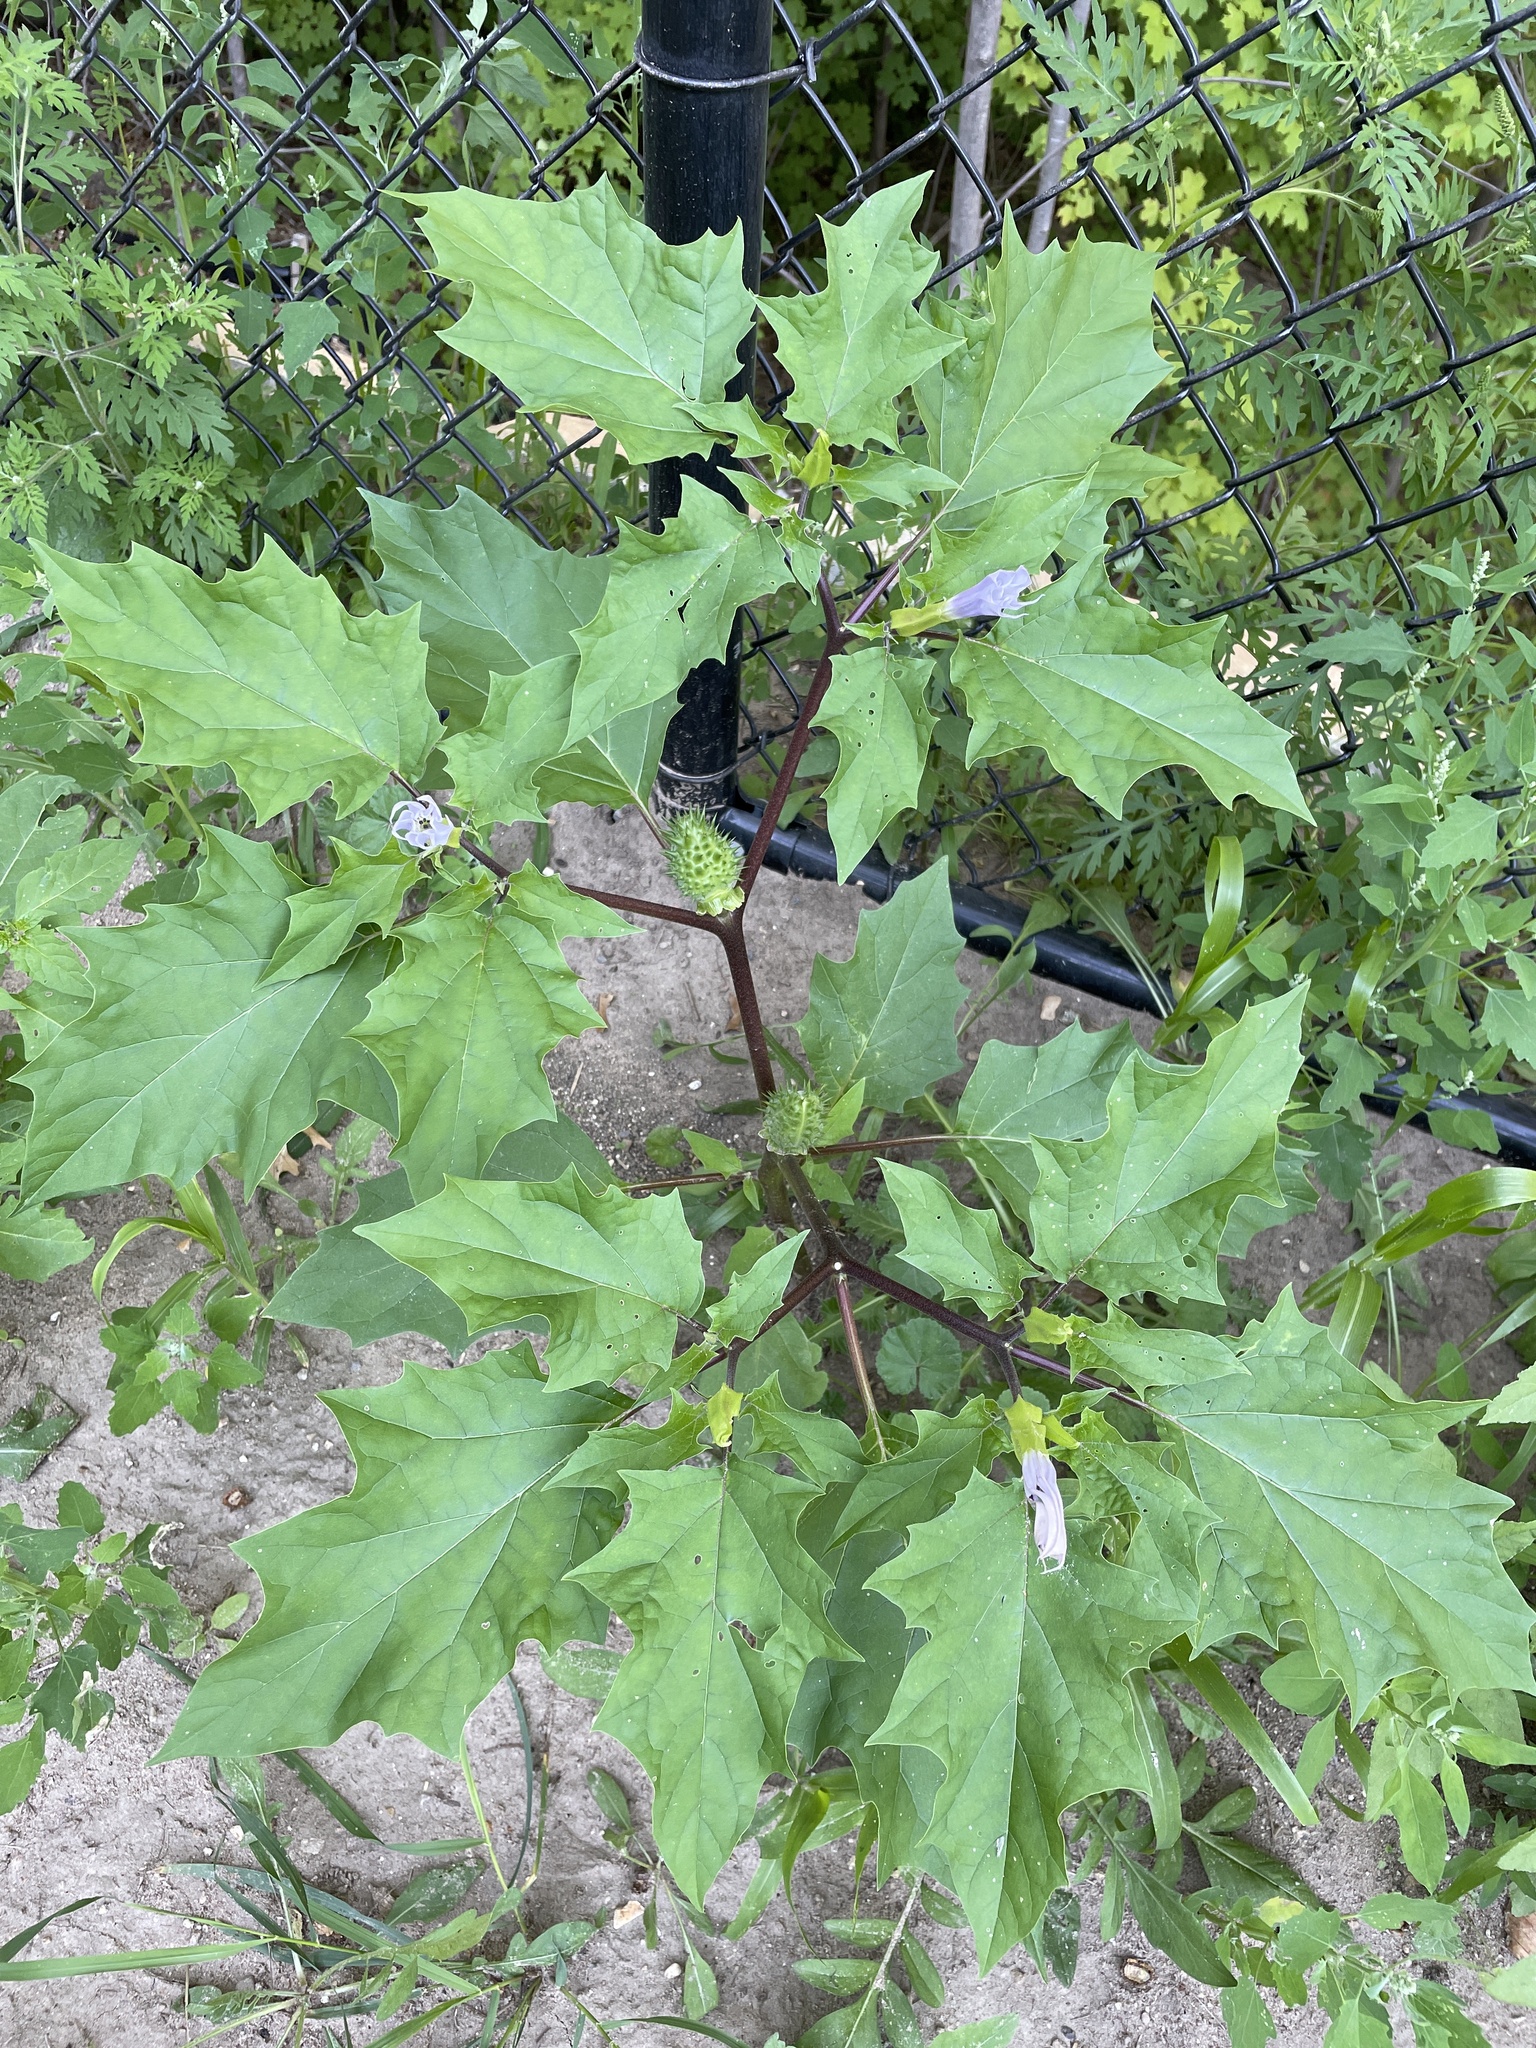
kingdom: Plantae
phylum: Tracheophyta
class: Magnoliopsida
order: Solanales
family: Solanaceae
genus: Datura
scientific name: Datura stramonium
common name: Thorn-apple
